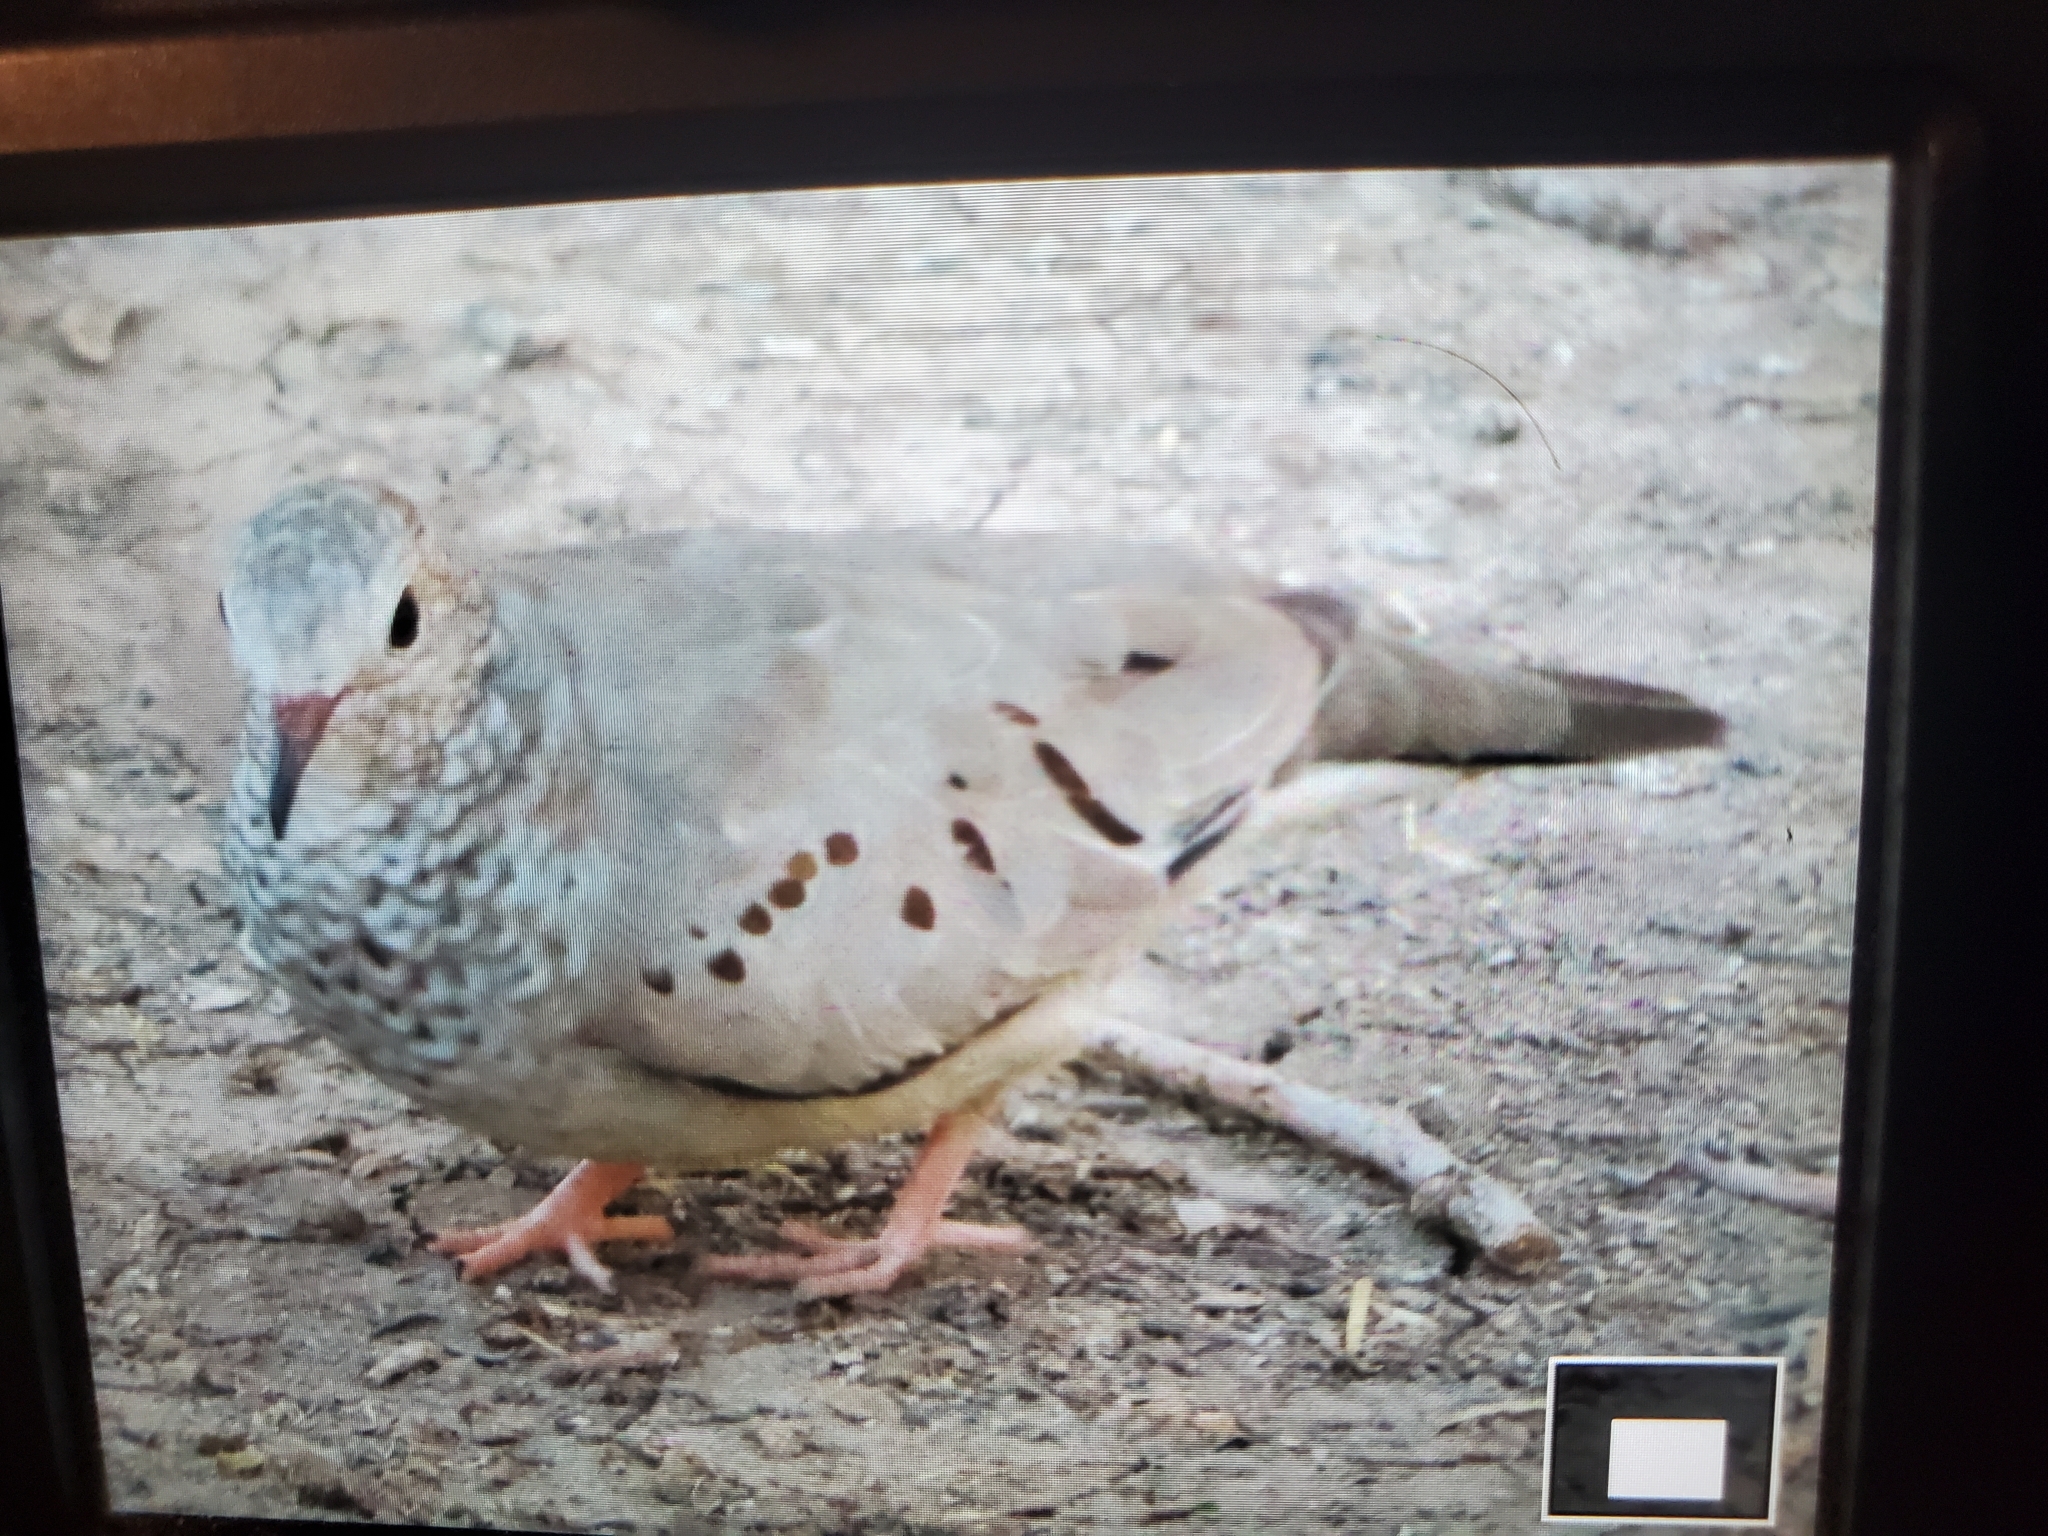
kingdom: Animalia
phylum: Chordata
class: Aves
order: Columbiformes
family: Columbidae
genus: Columbina
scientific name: Columbina passerina
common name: Common ground-dove
